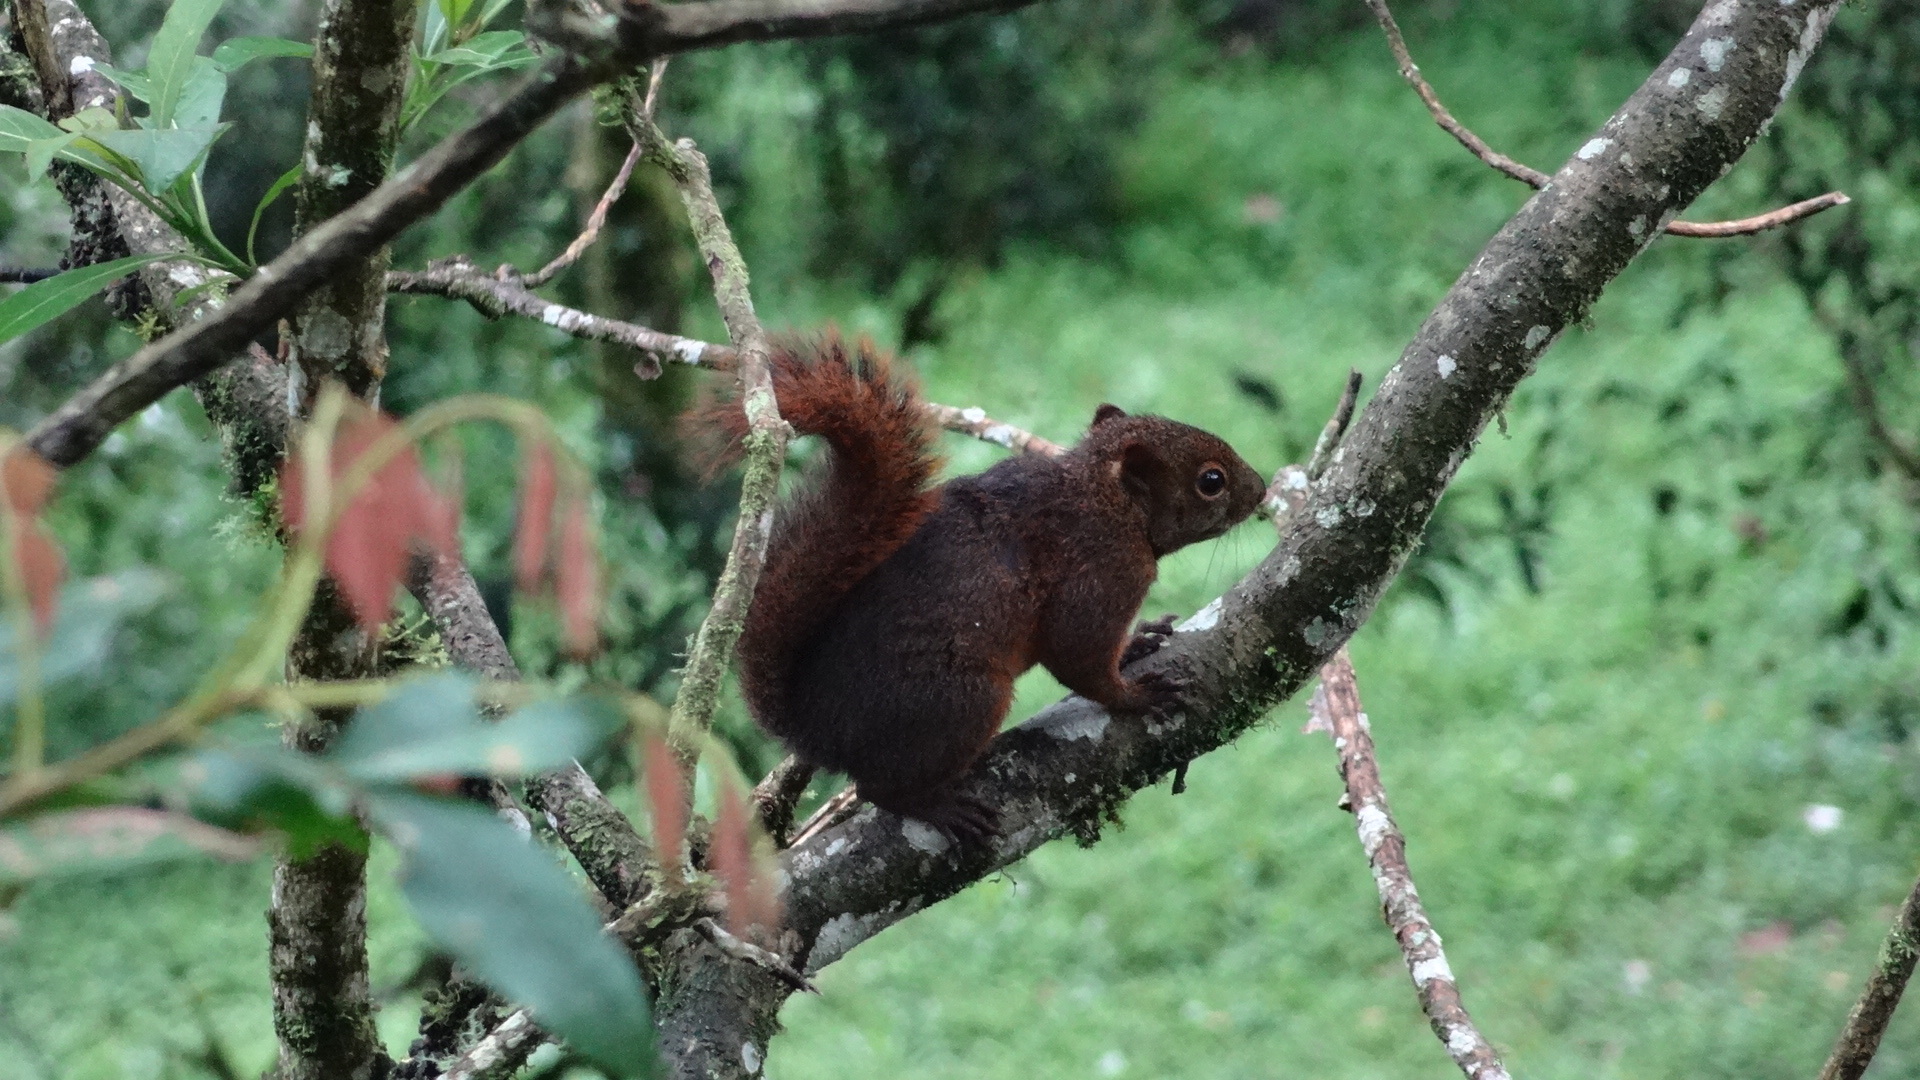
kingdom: Animalia
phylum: Chordata
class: Mammalia
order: Rodentia
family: Sciuridae
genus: Sciurus
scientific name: Sciurus granatensis
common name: Red-tailed squirrel
